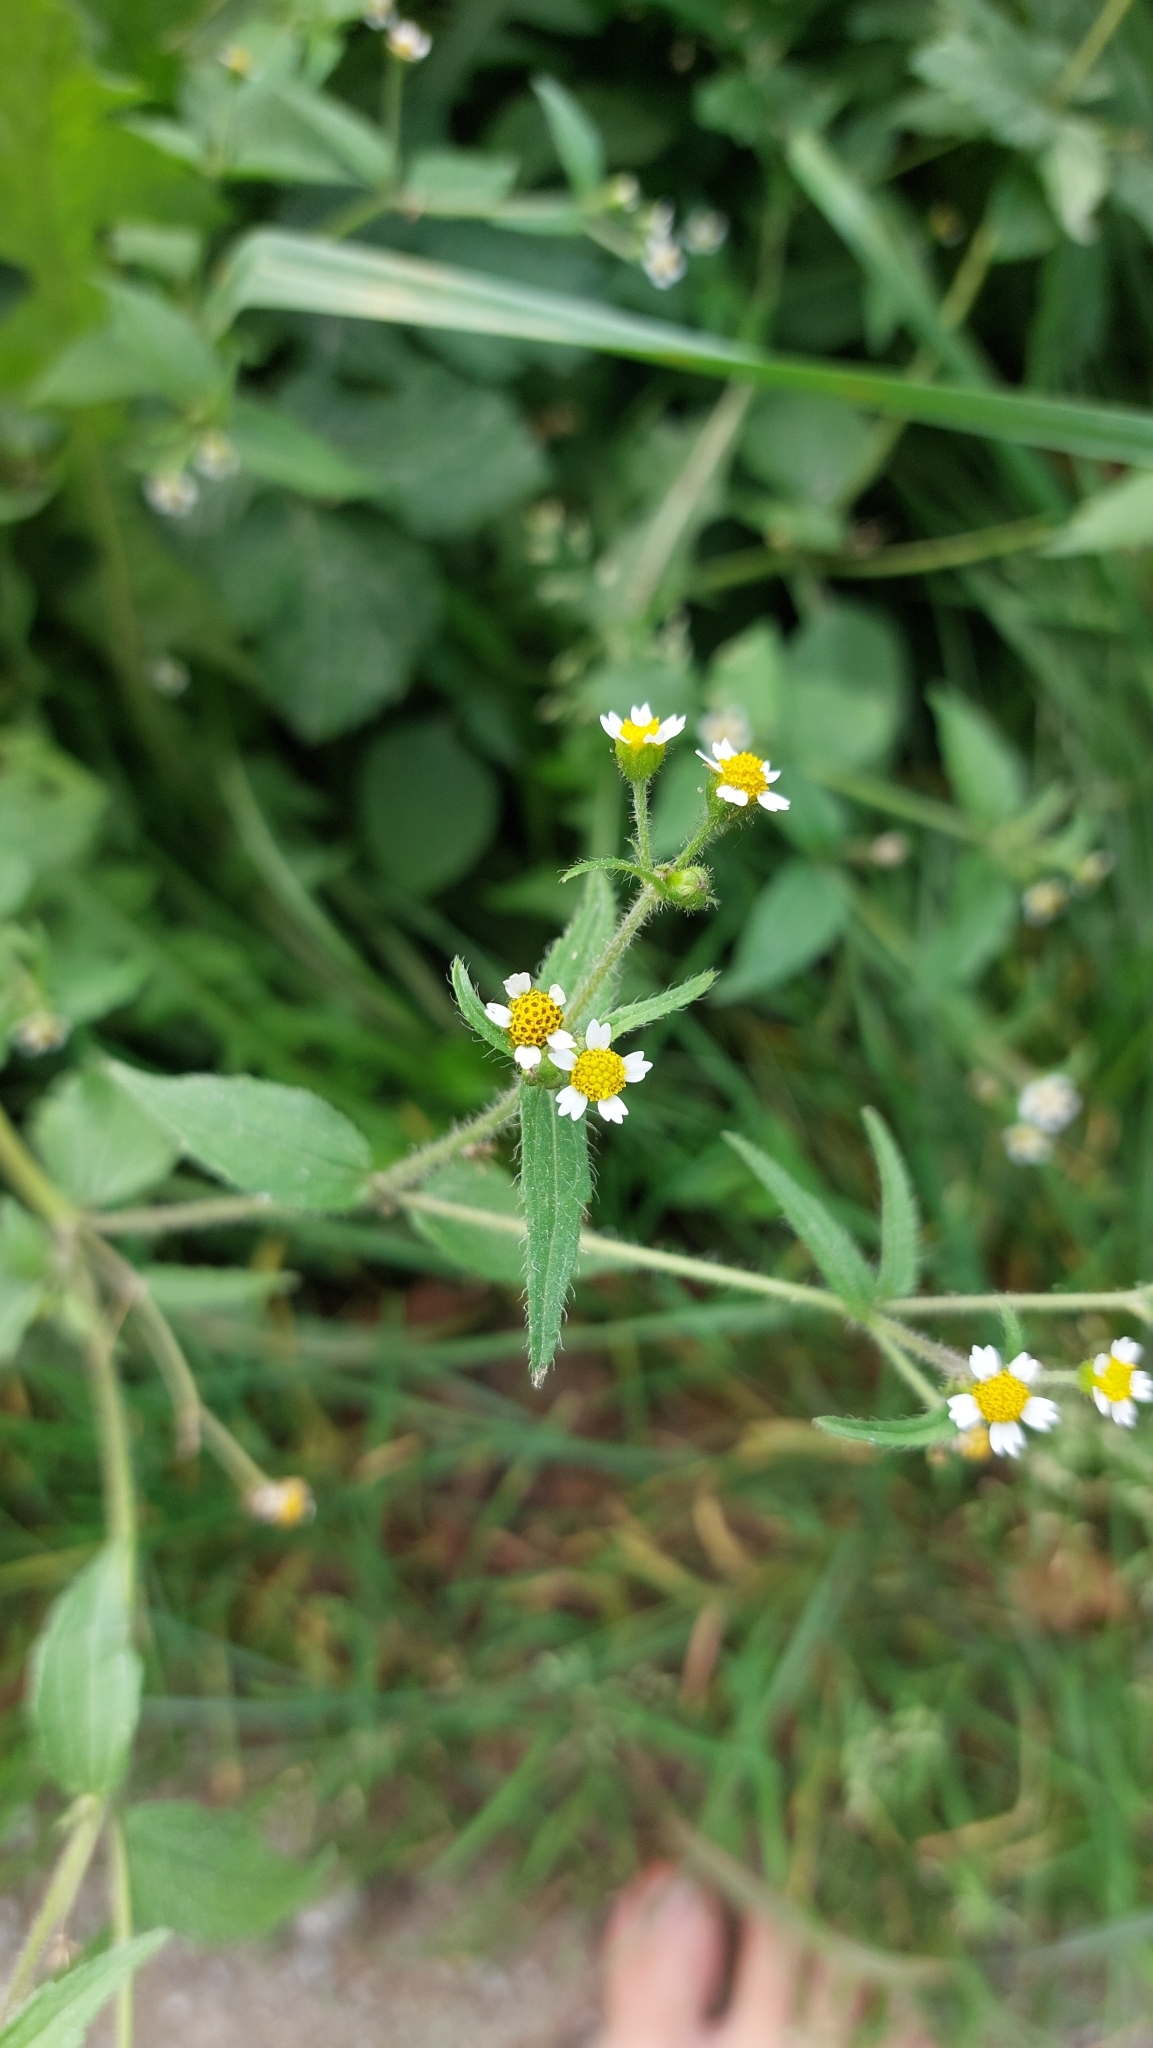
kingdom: Plantae
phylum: Tracheophyta
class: Magnoliopsida
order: Asterales
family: Asteraceae
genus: Galinsoga
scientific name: Galinsoga quadriradiata
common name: Shaggy soldier
